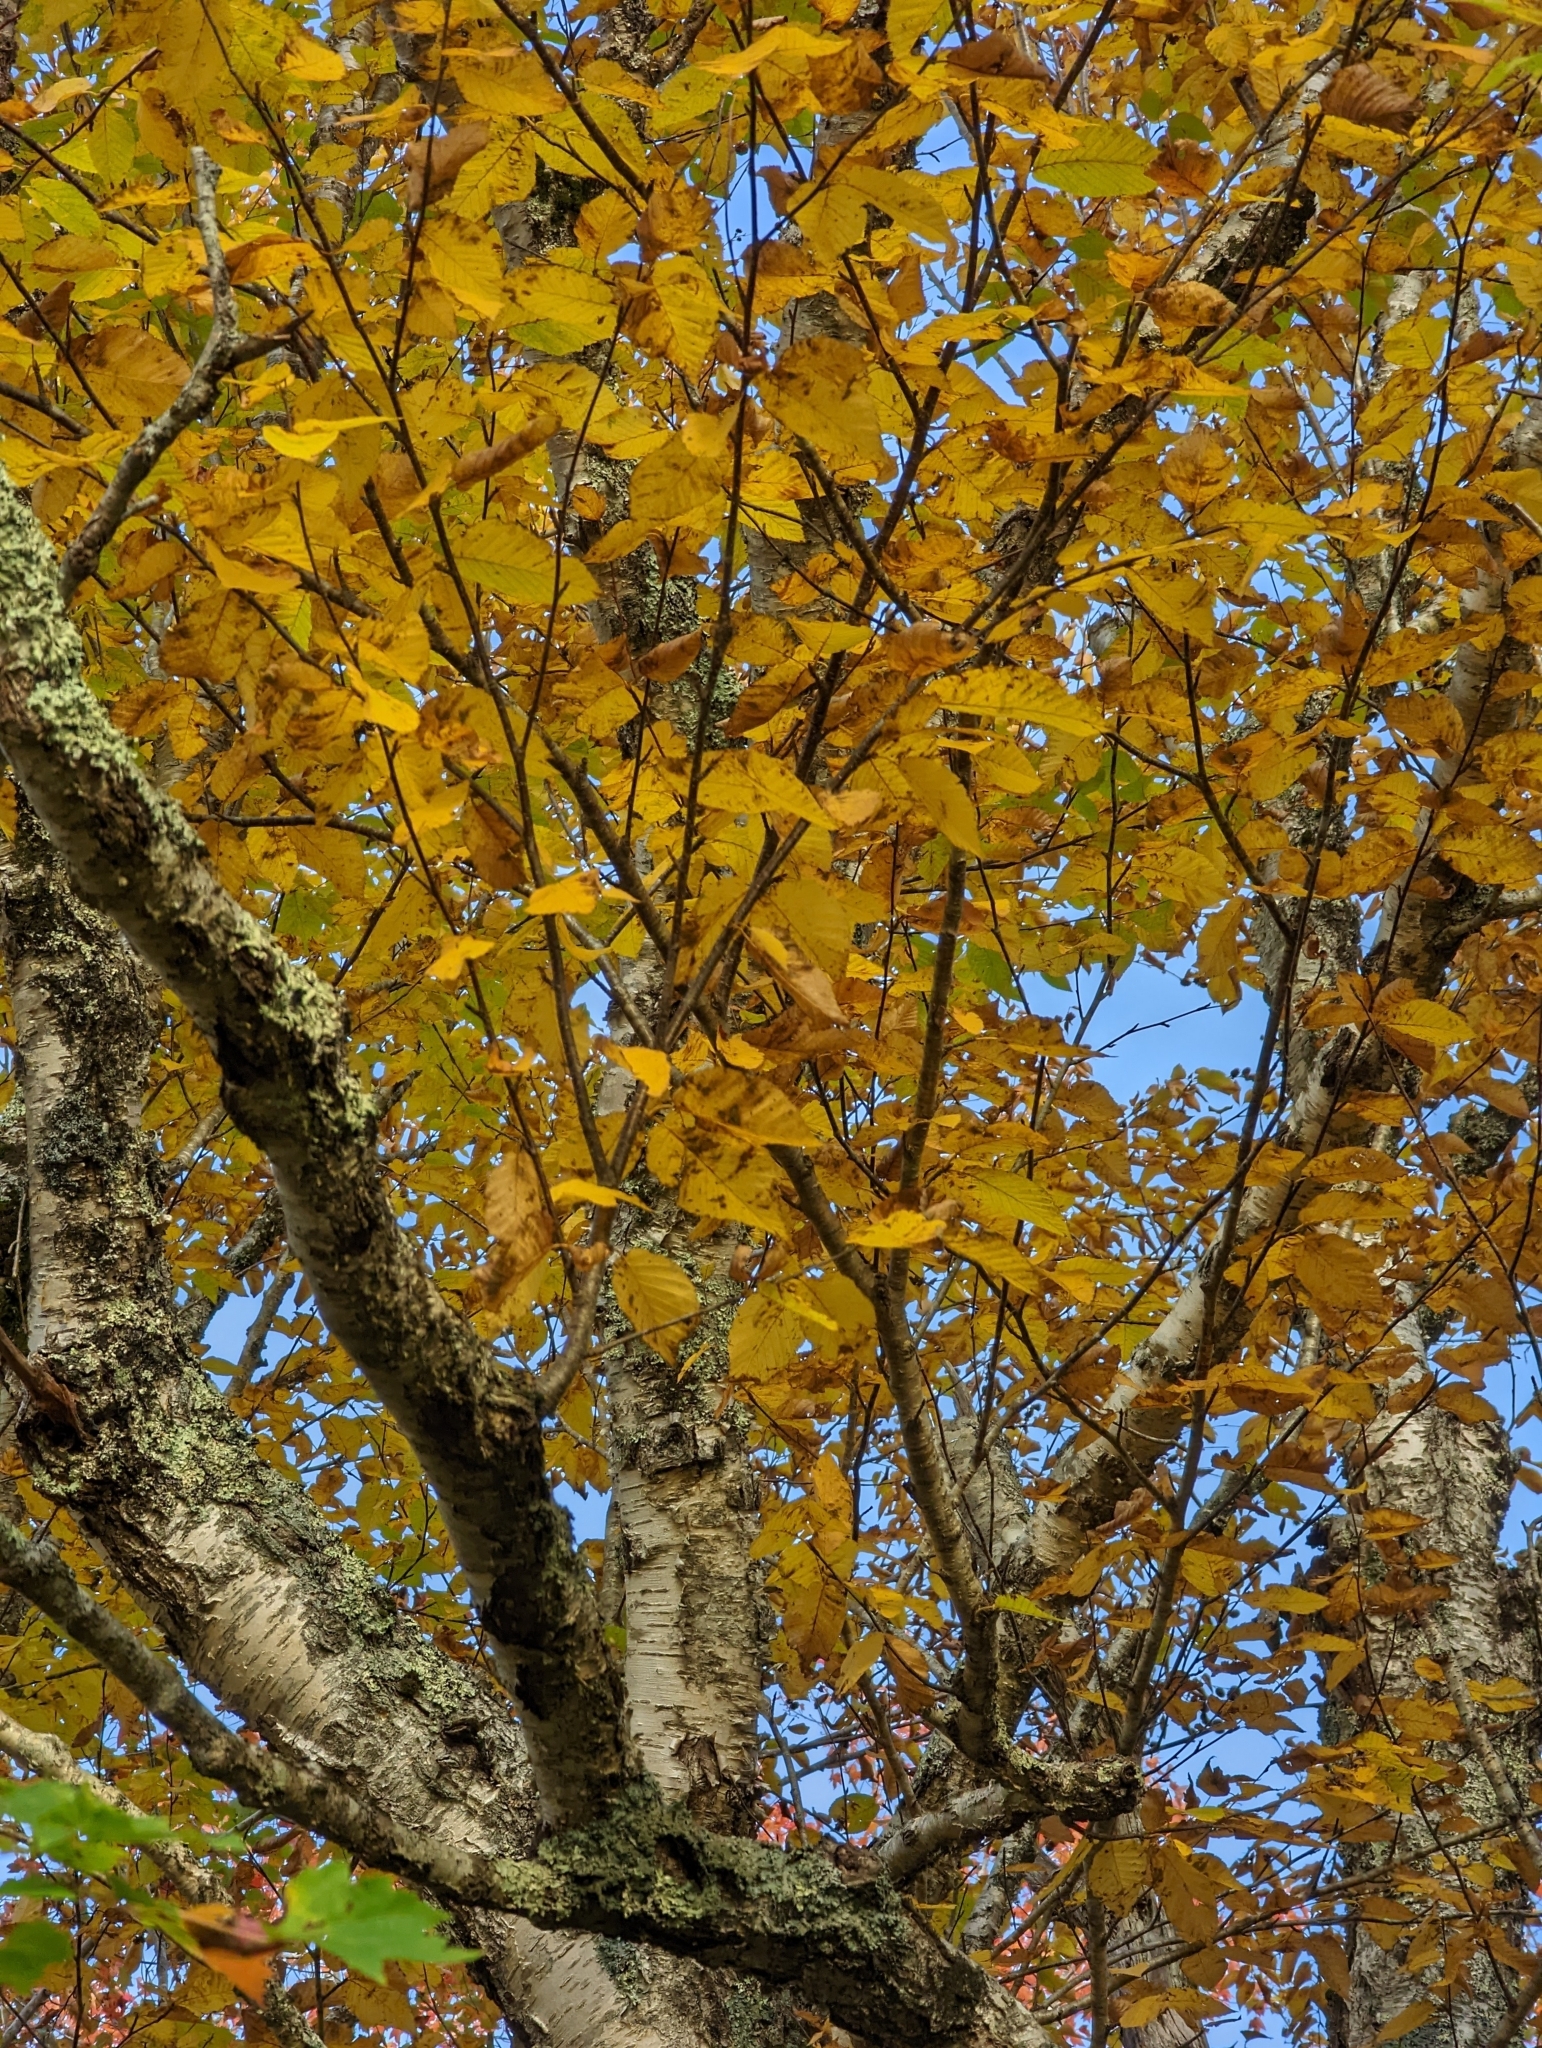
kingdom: Plantae
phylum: Tracheophyta
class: Magnoliopsida
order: Fagales
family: Betulaceae
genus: Betula
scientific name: Betula alleghaniensis
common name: Yellow birch
